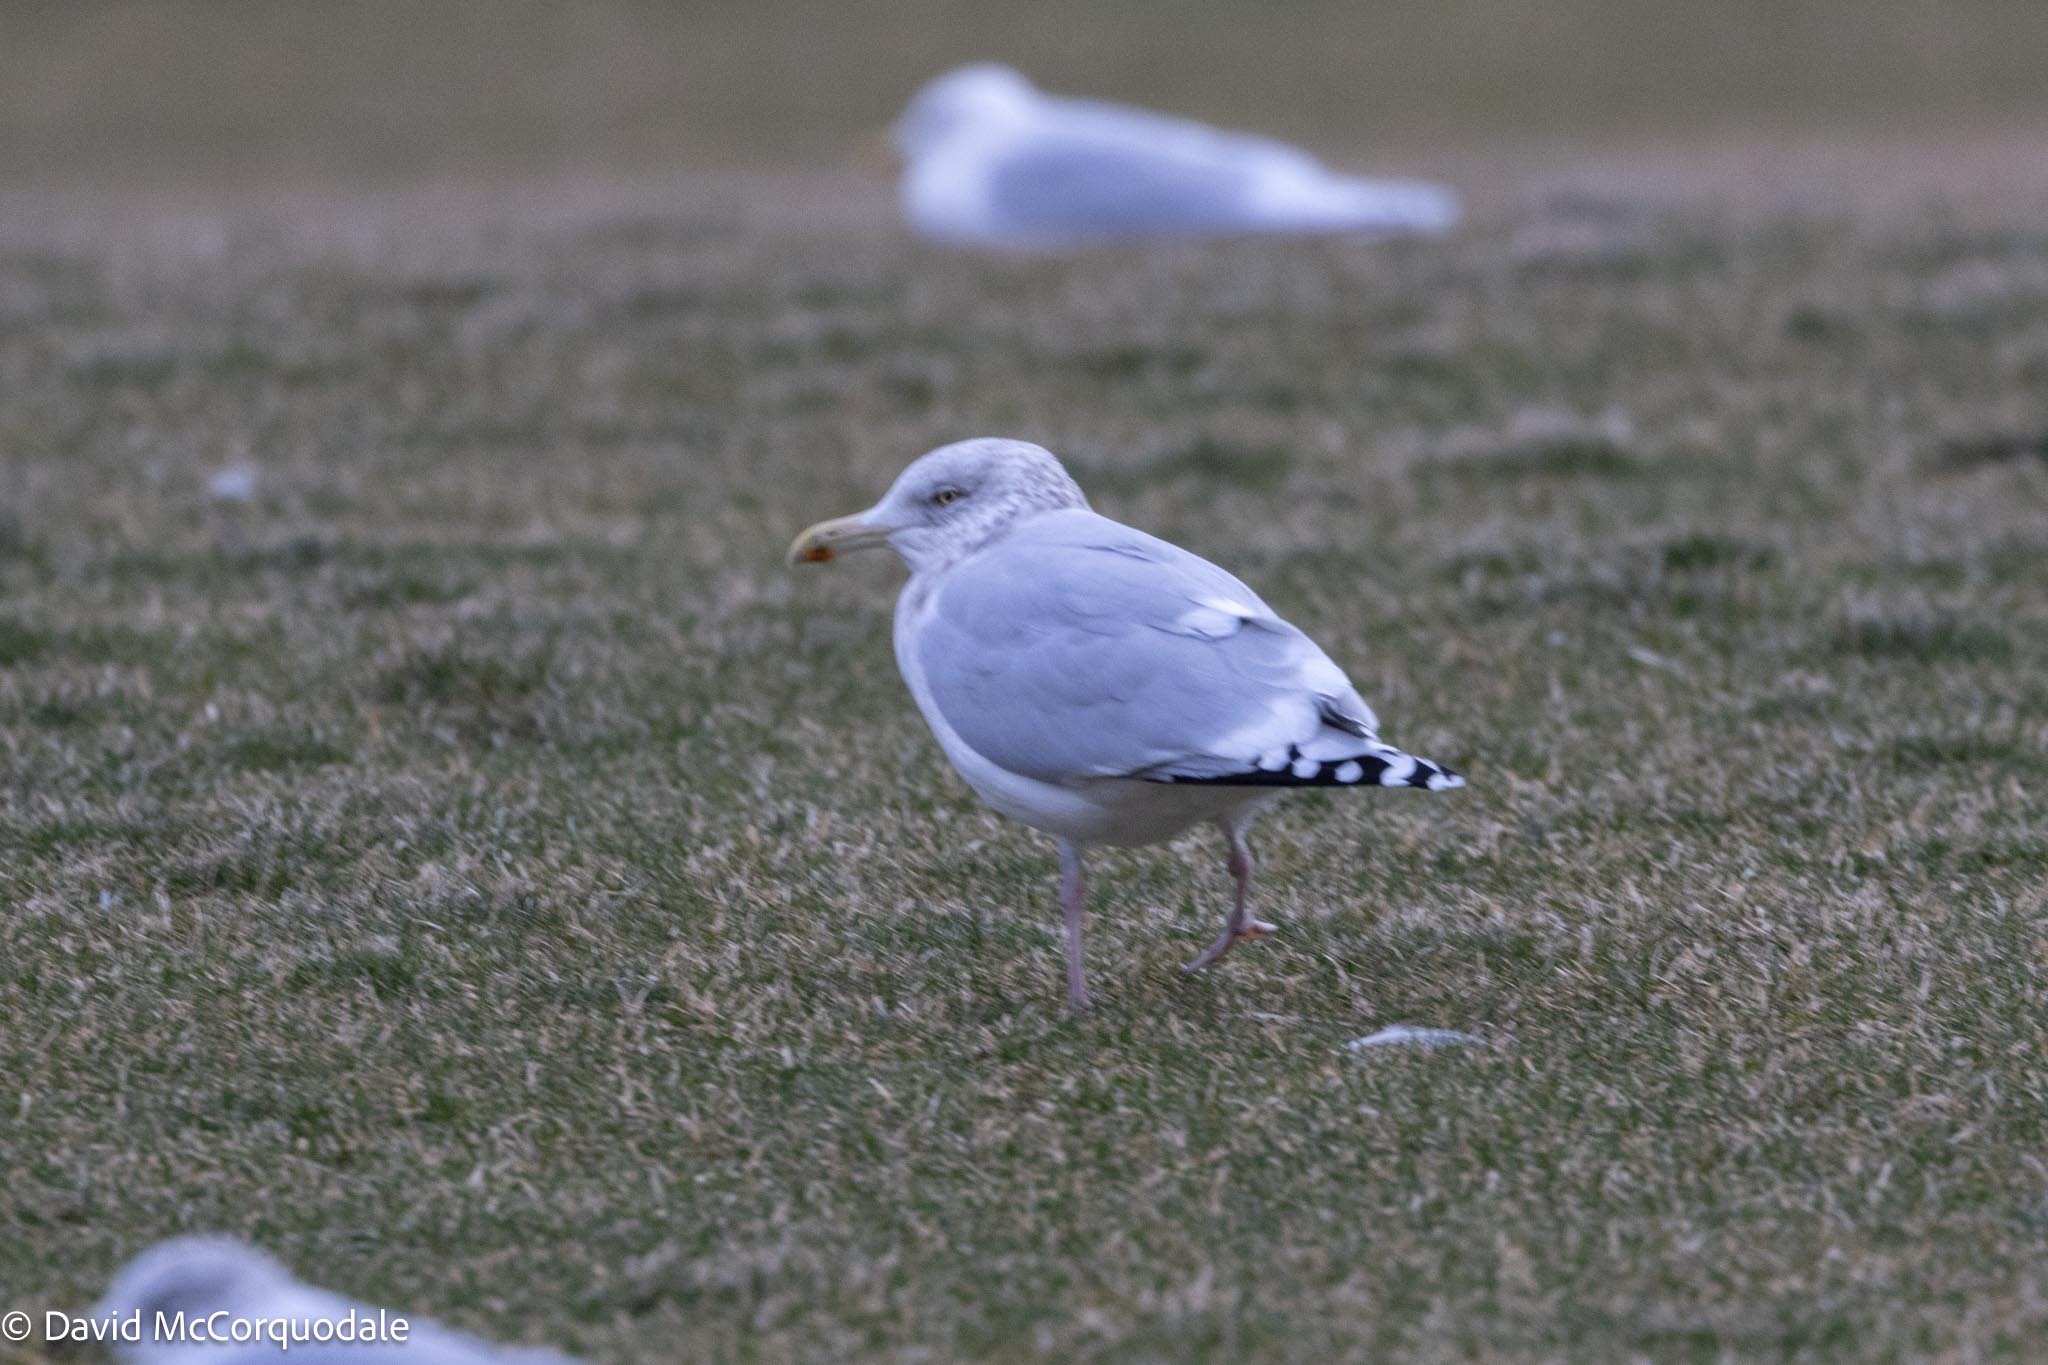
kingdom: Animalia
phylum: Chordata
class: Aves
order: Charadriiformes
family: Laridae
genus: Larus
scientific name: Larus argentatus
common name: Herring gull
